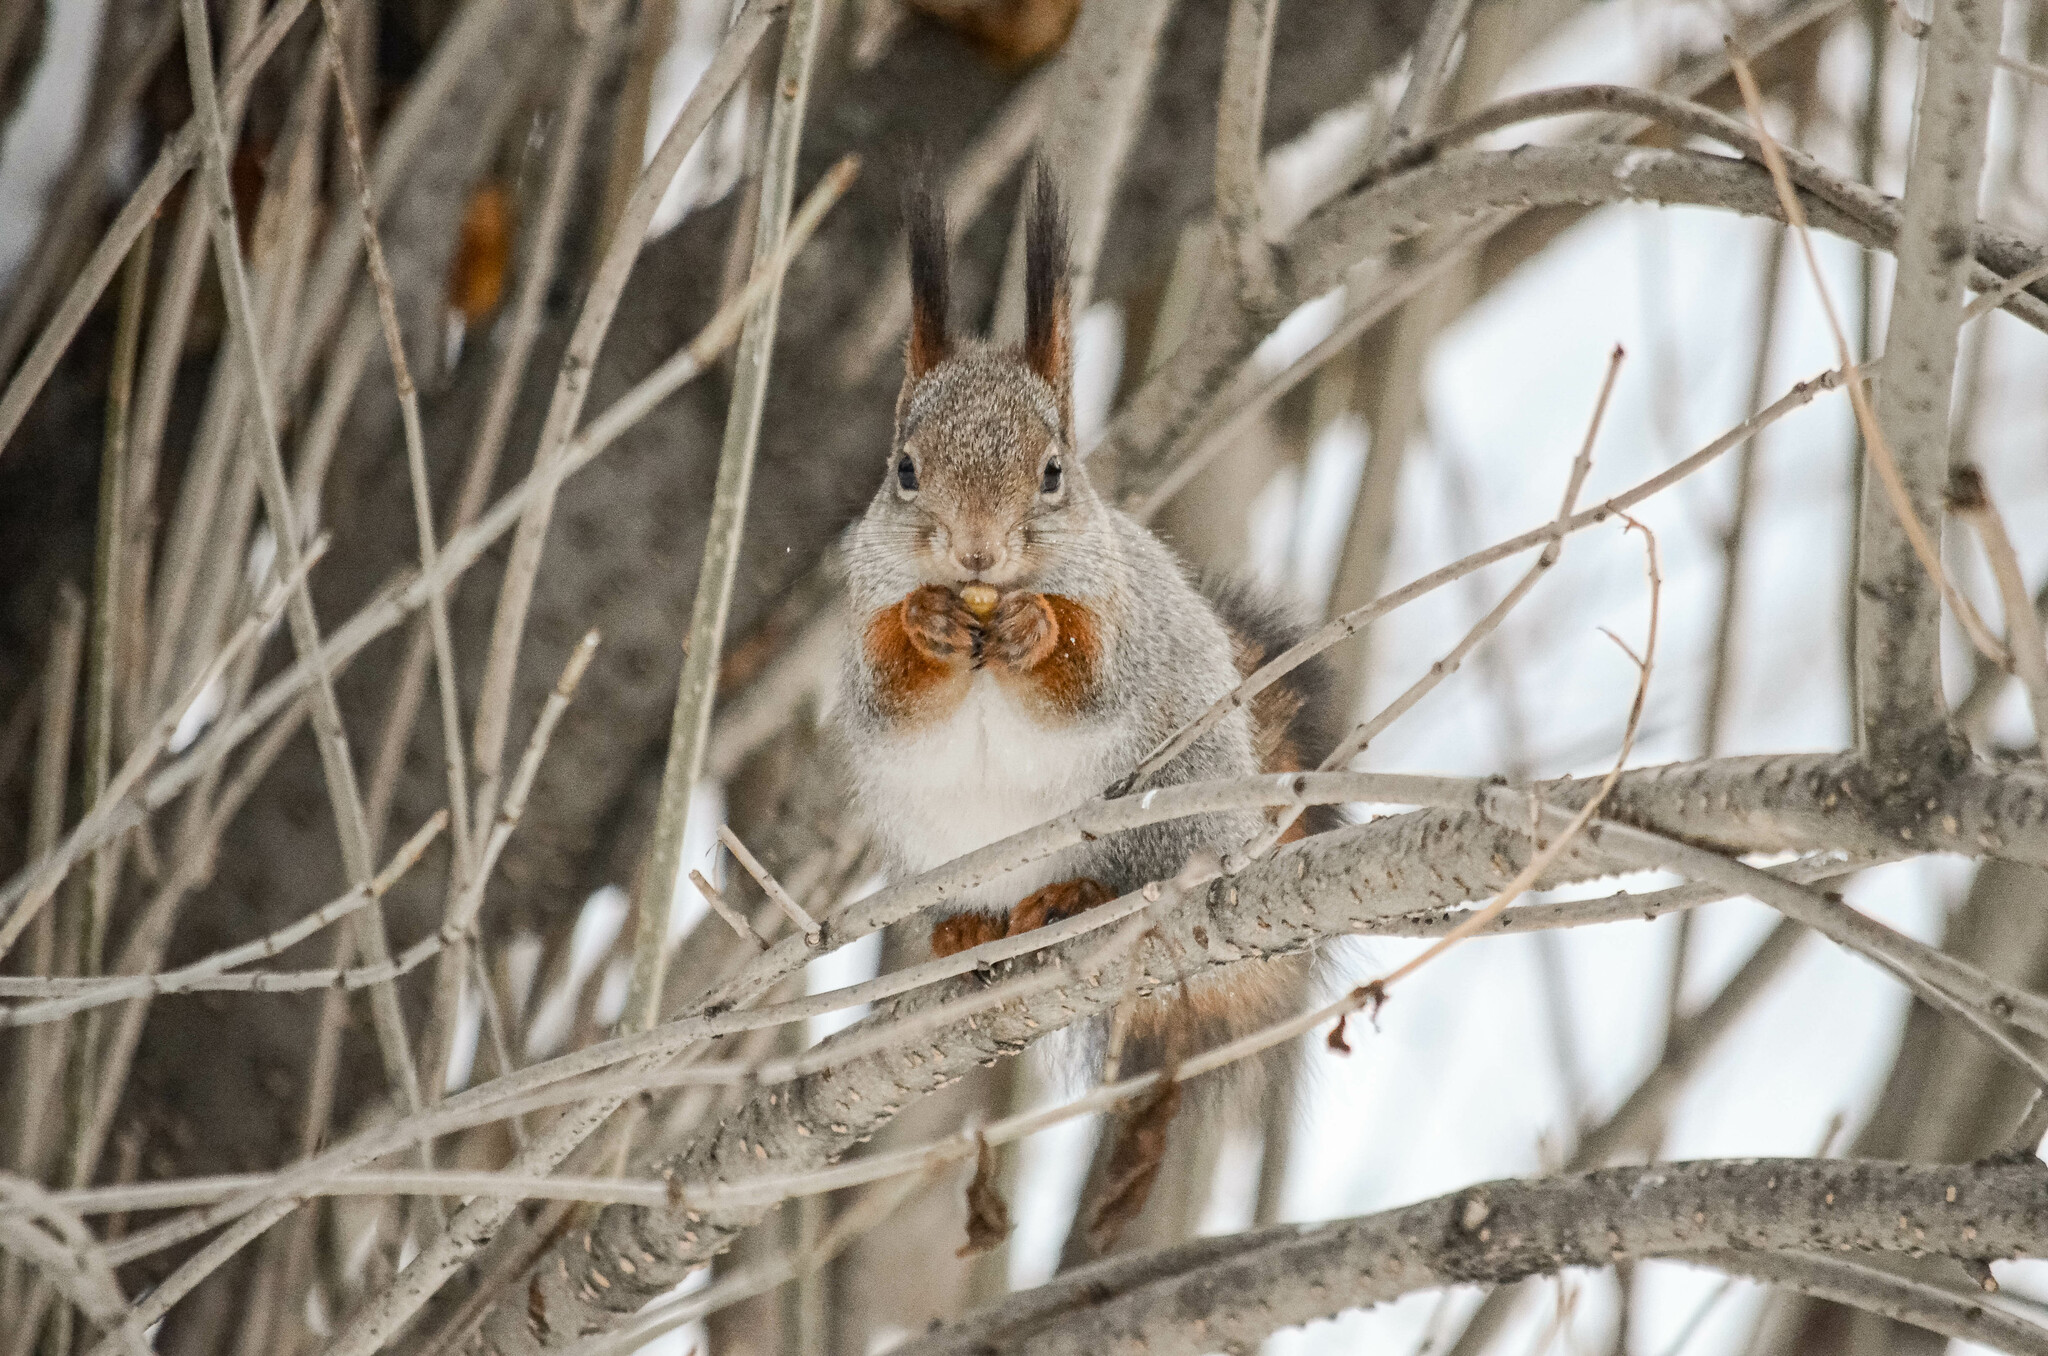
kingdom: Animalia
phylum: Chordata
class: Mammalia
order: Rodentia
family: Sciuridae
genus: Sciurus
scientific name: Sciurus vulgaris
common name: Eurasian red squirrel
